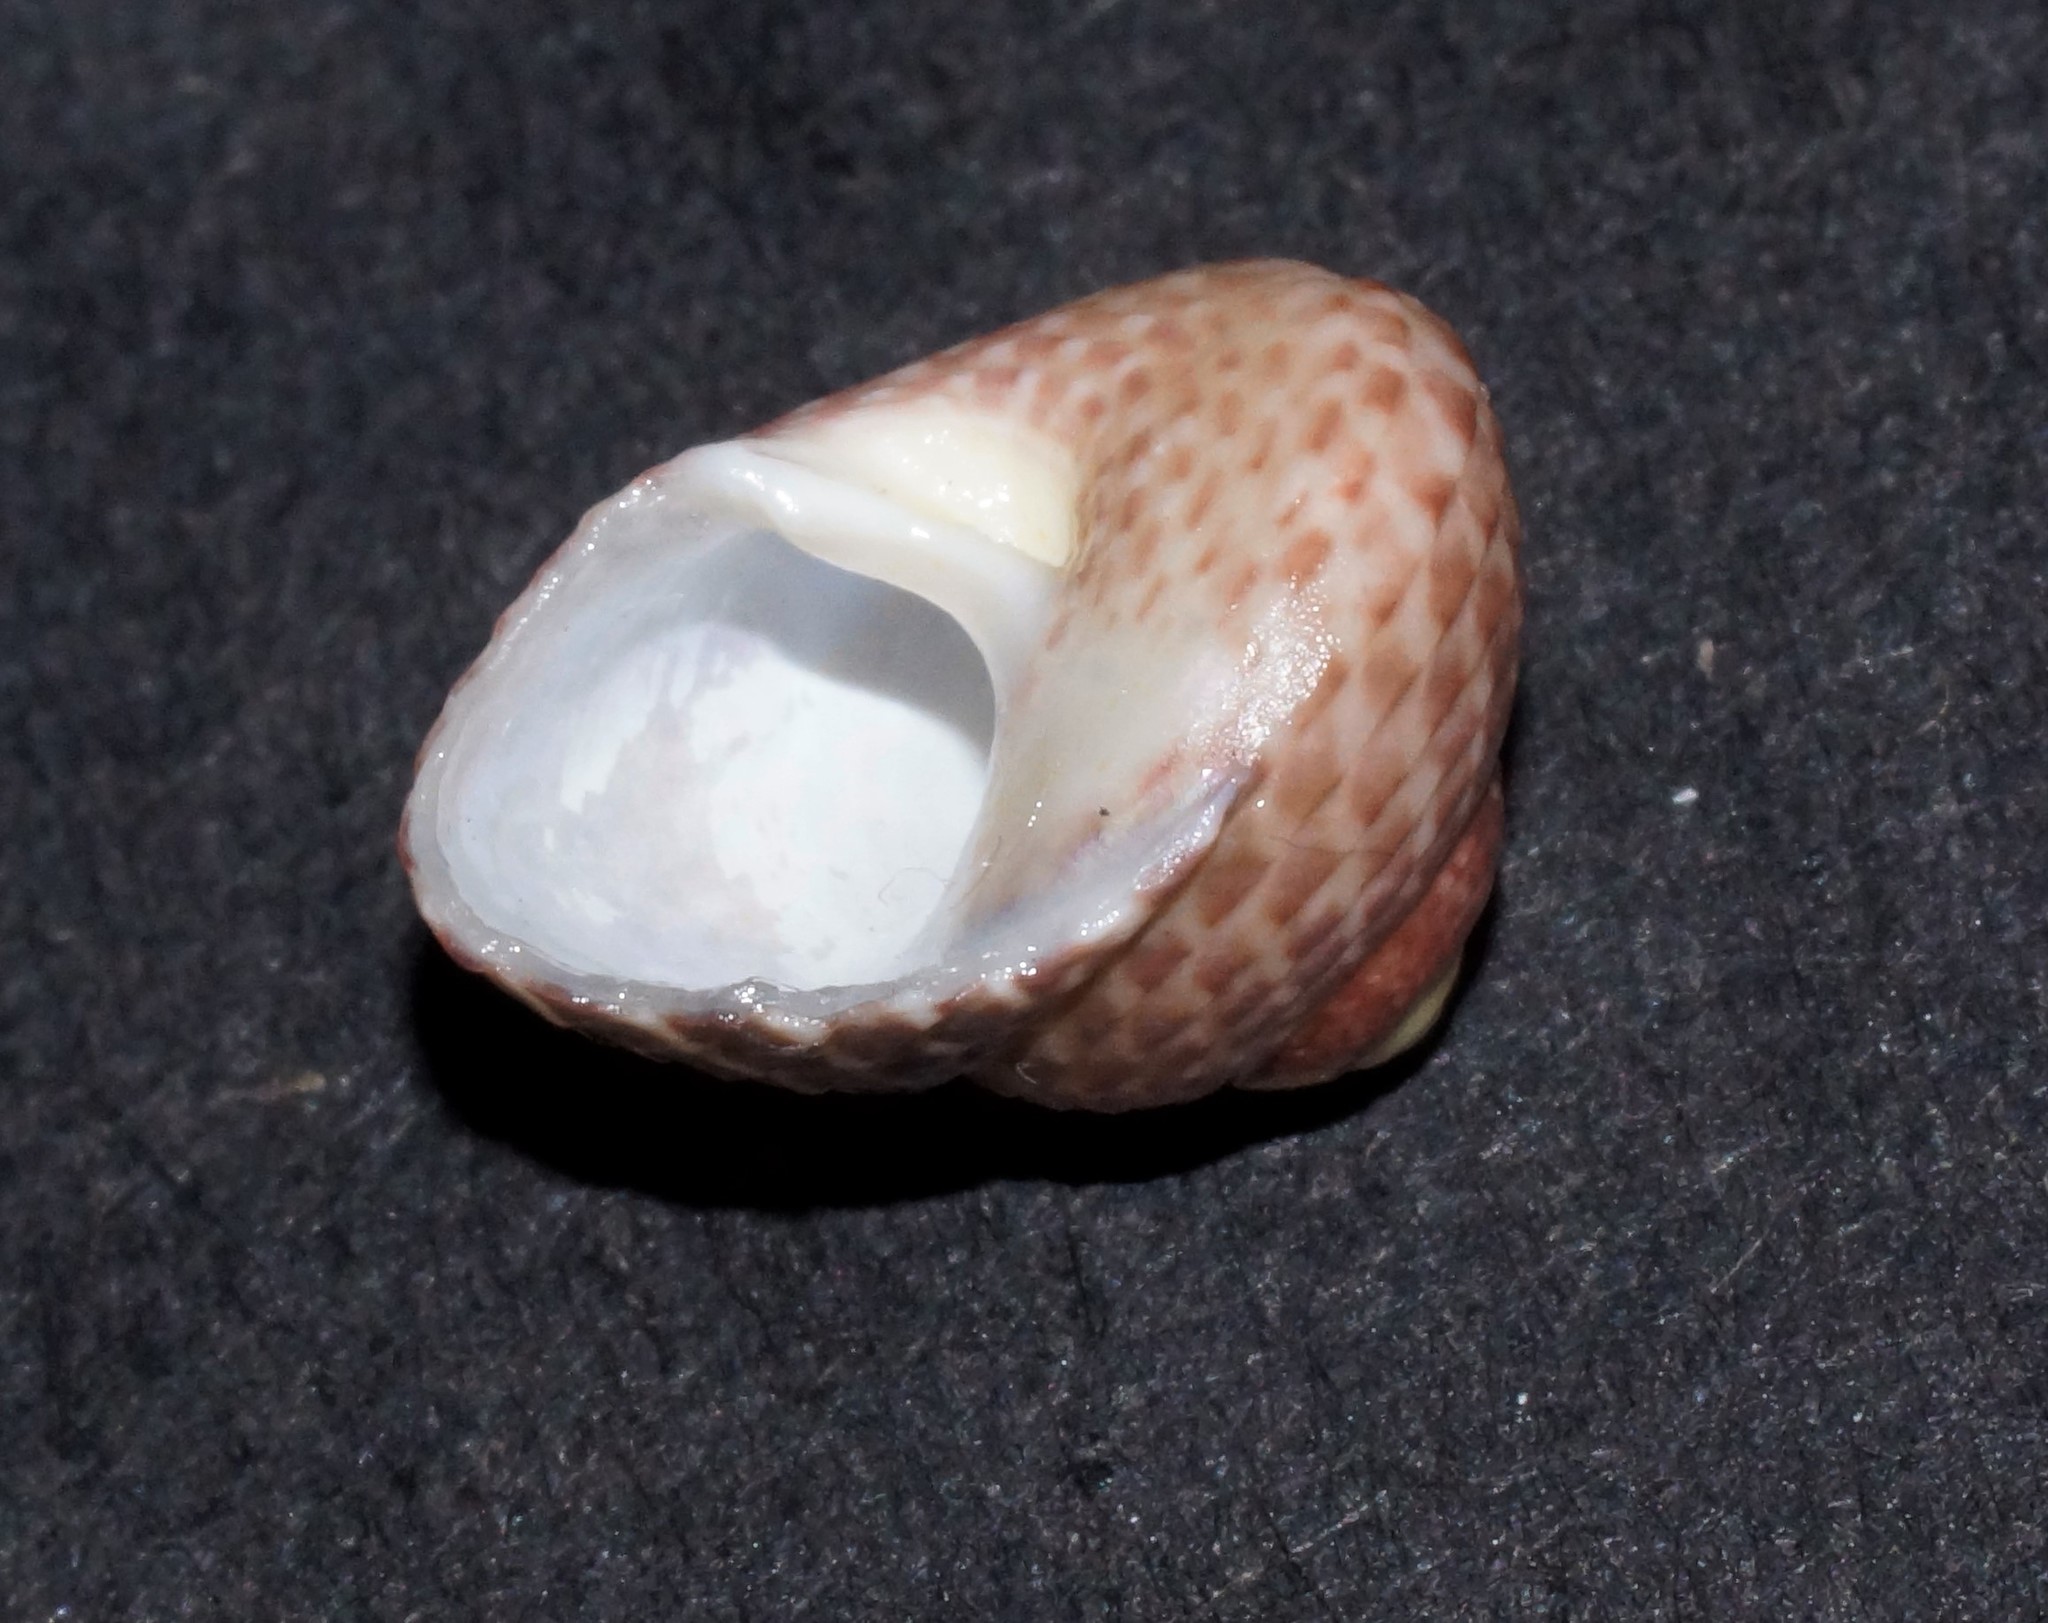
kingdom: Animalia
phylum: Mollusca
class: Gastropoda
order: Trochida
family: Trochidae
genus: Chlorodiloma
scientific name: Chlorodiloma adelaidae
